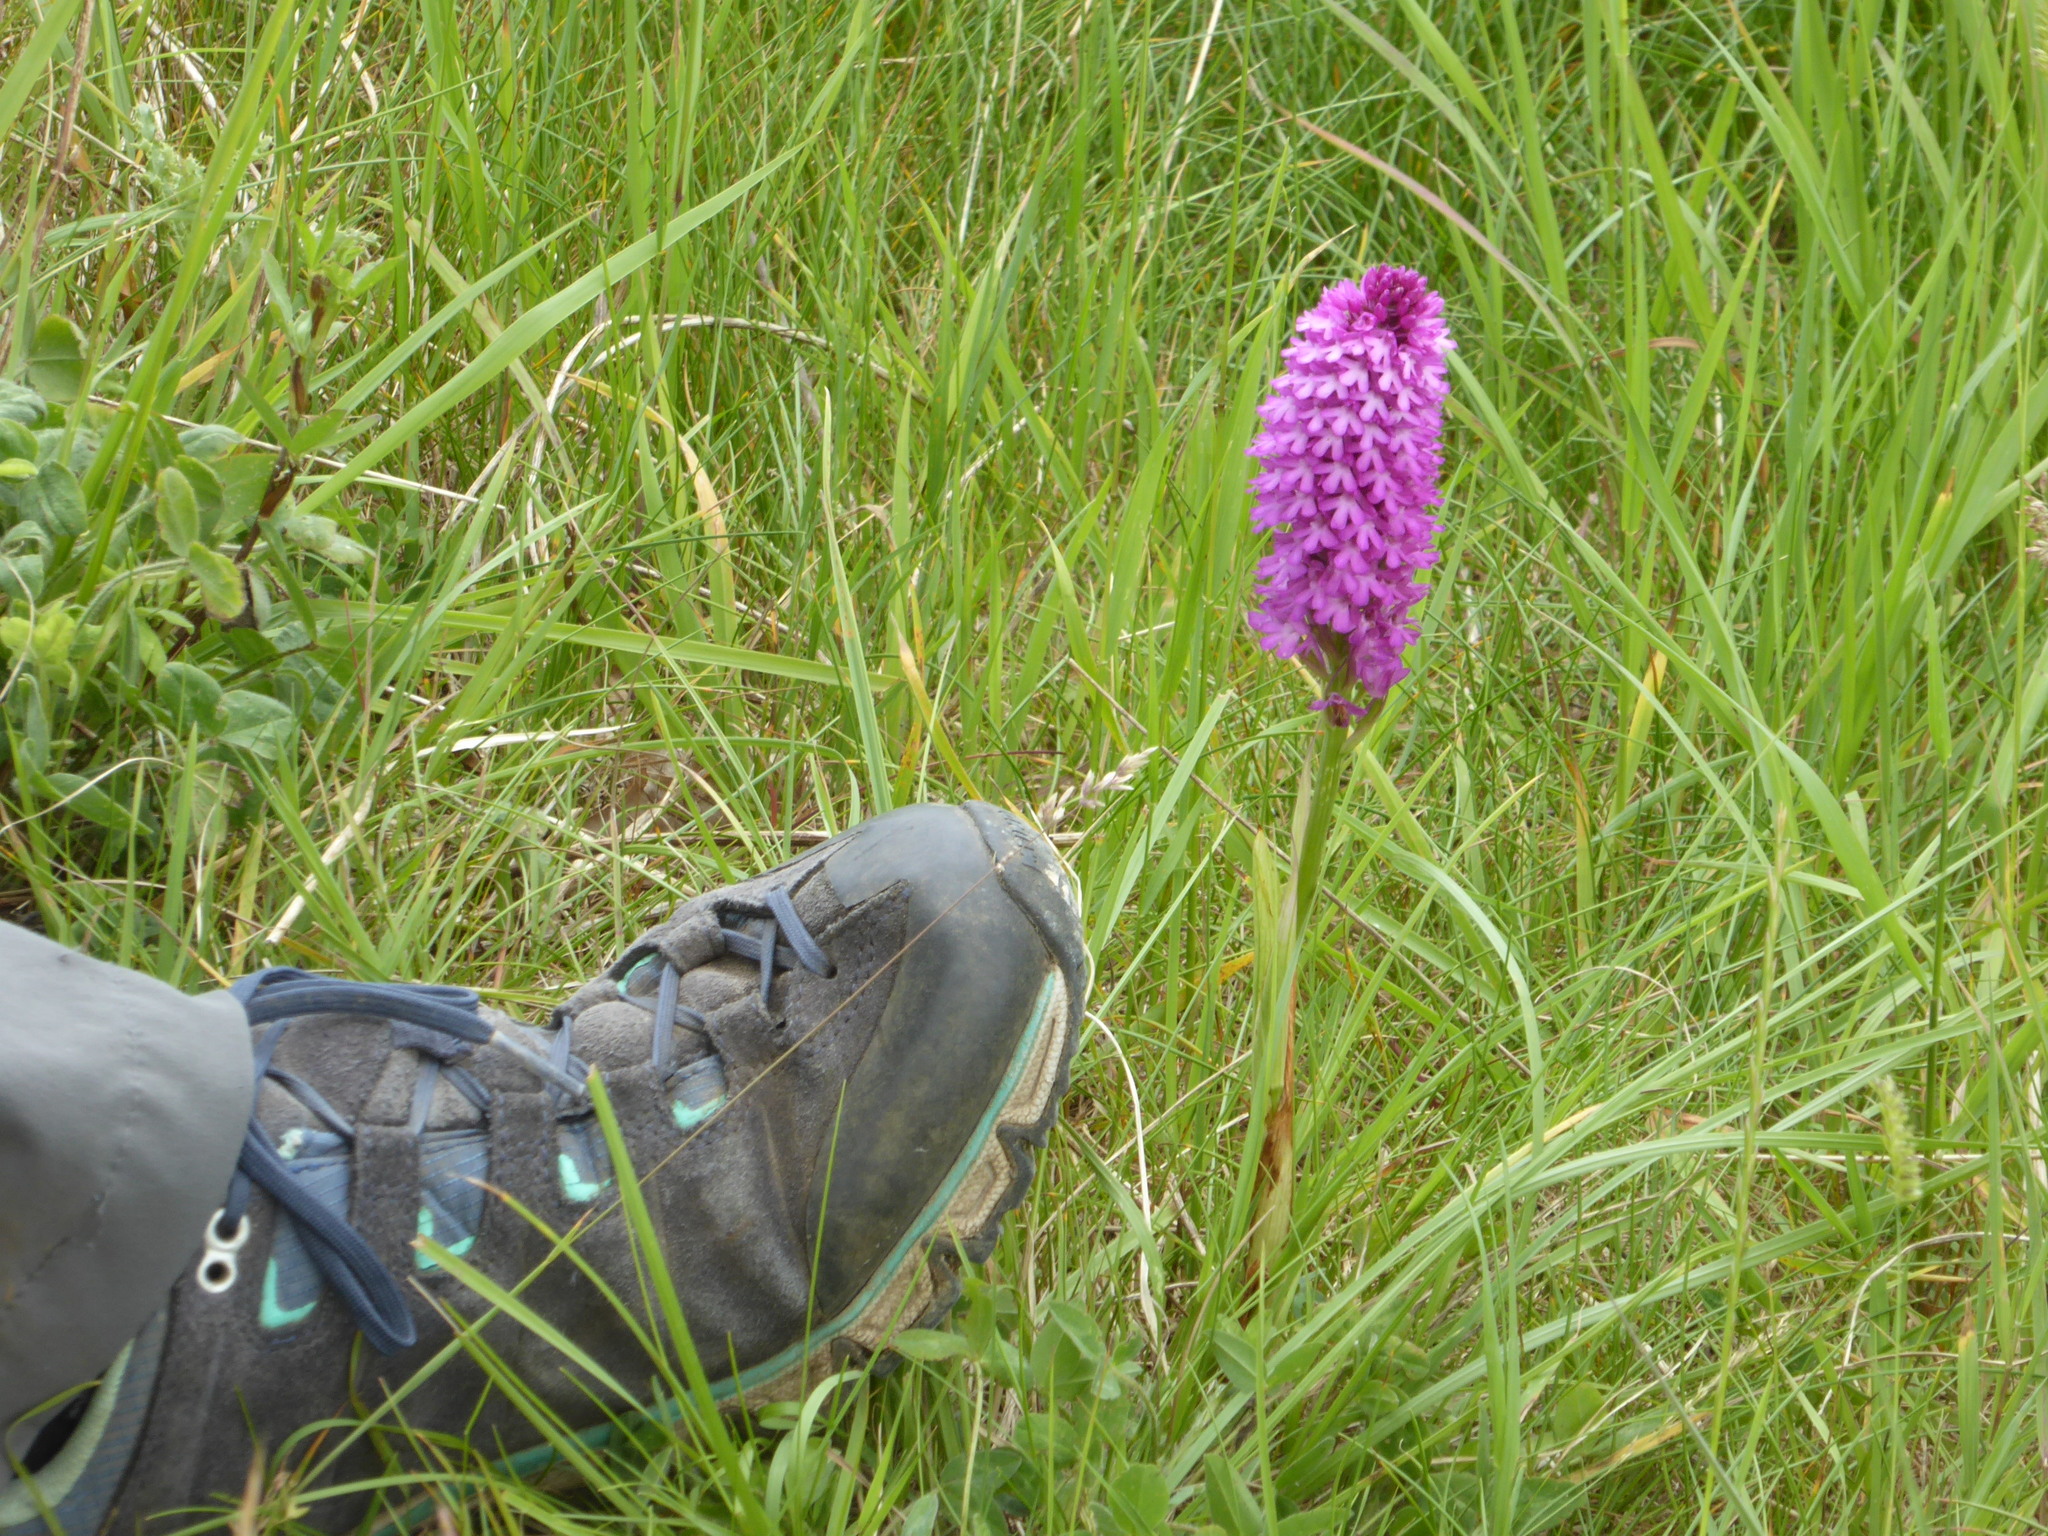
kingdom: Plantae
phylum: Tracheophyta
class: Liliopsida
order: Asparagales
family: Orchidaceae
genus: Anacamptis
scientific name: Anacamptis pyramidalis
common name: Pyramidal orchid
